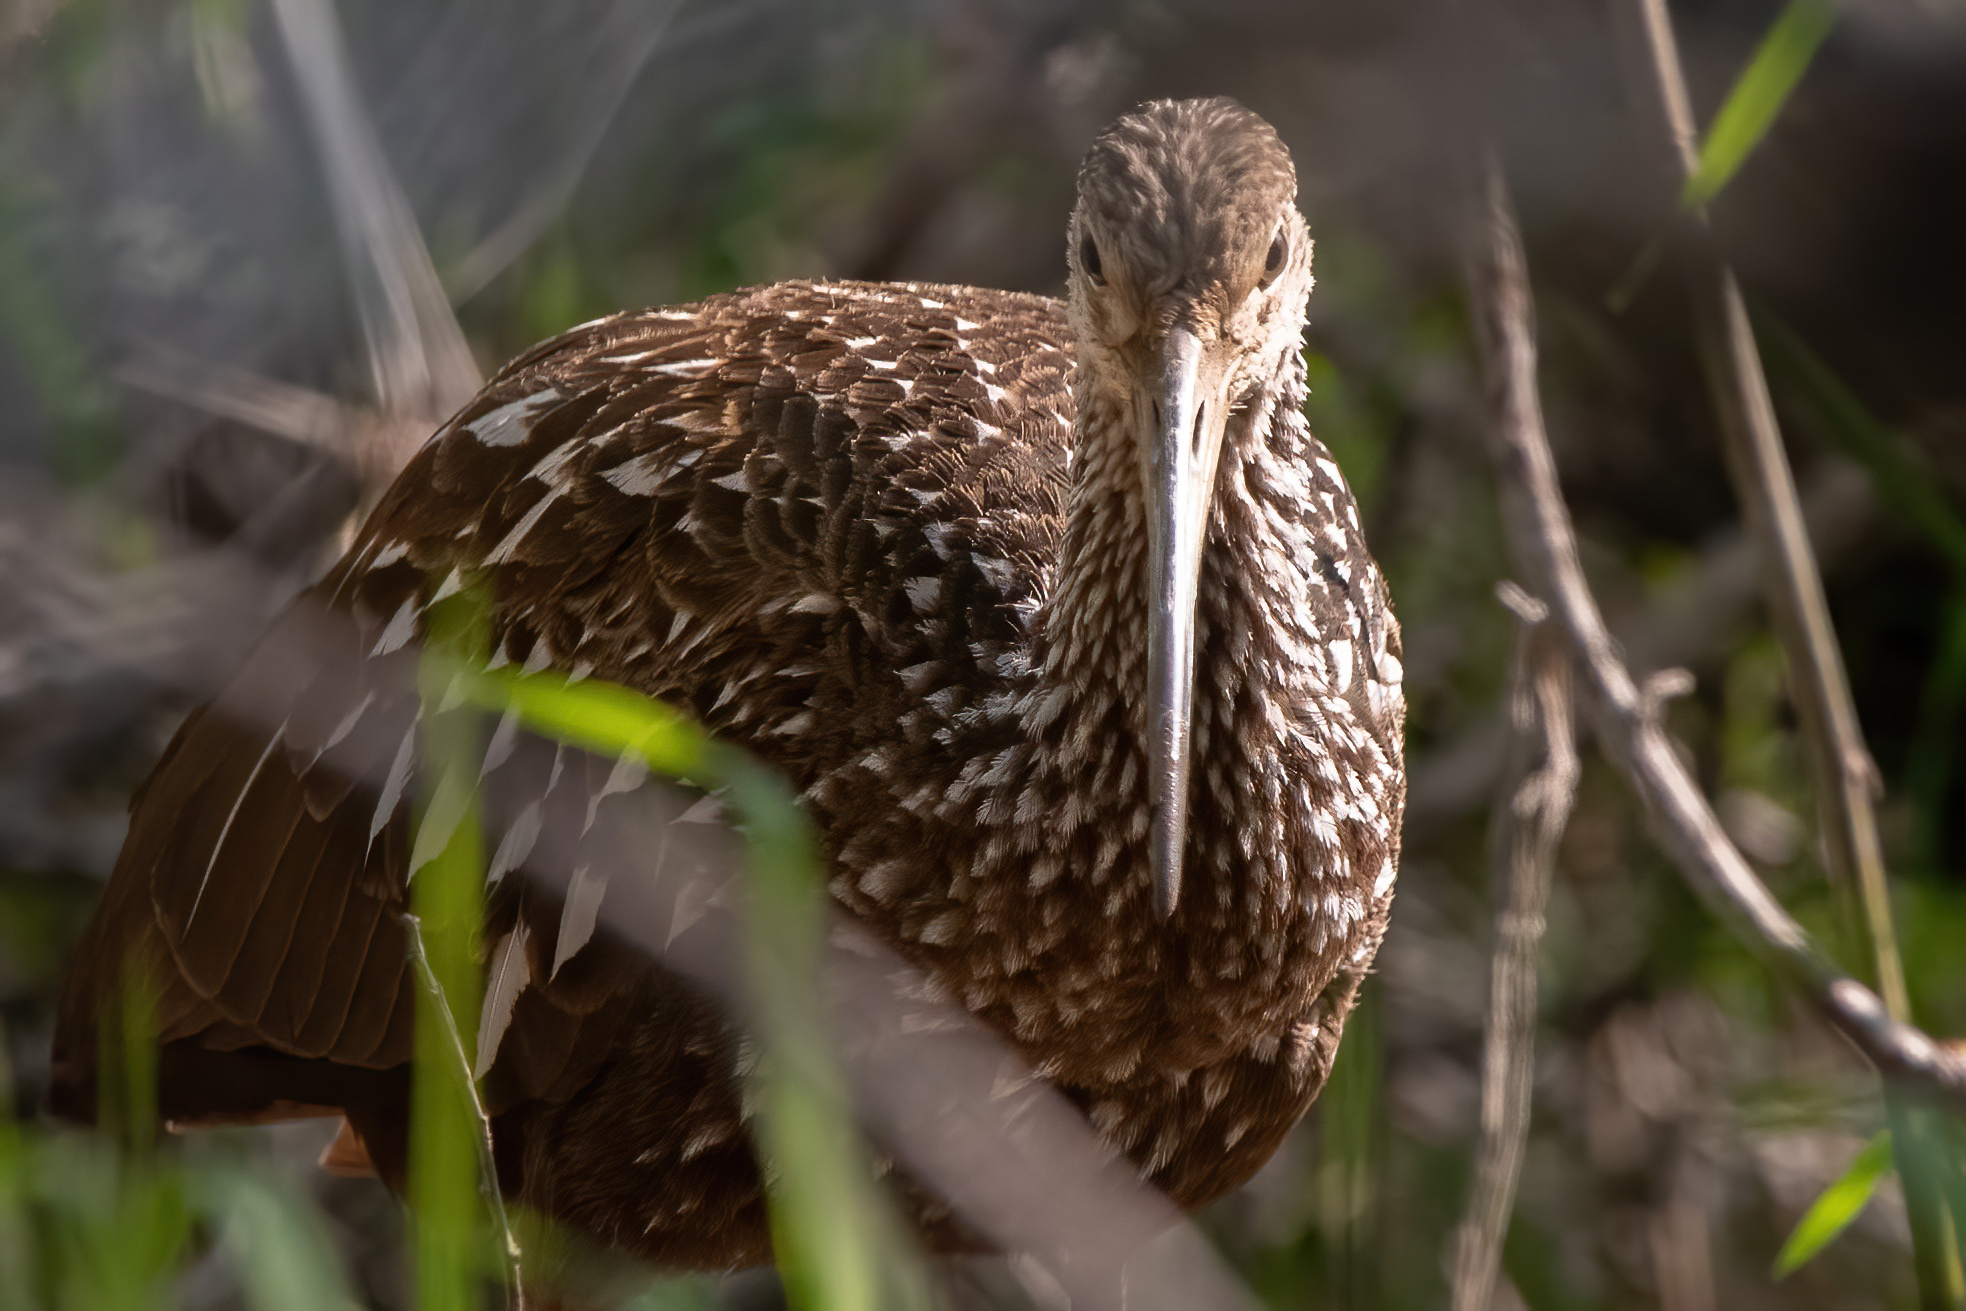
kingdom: Animalia
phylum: Chordata
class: Aves
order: Gruiformes
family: Aramidae
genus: Aramus
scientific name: Aramus guarauna
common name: Limpkin
